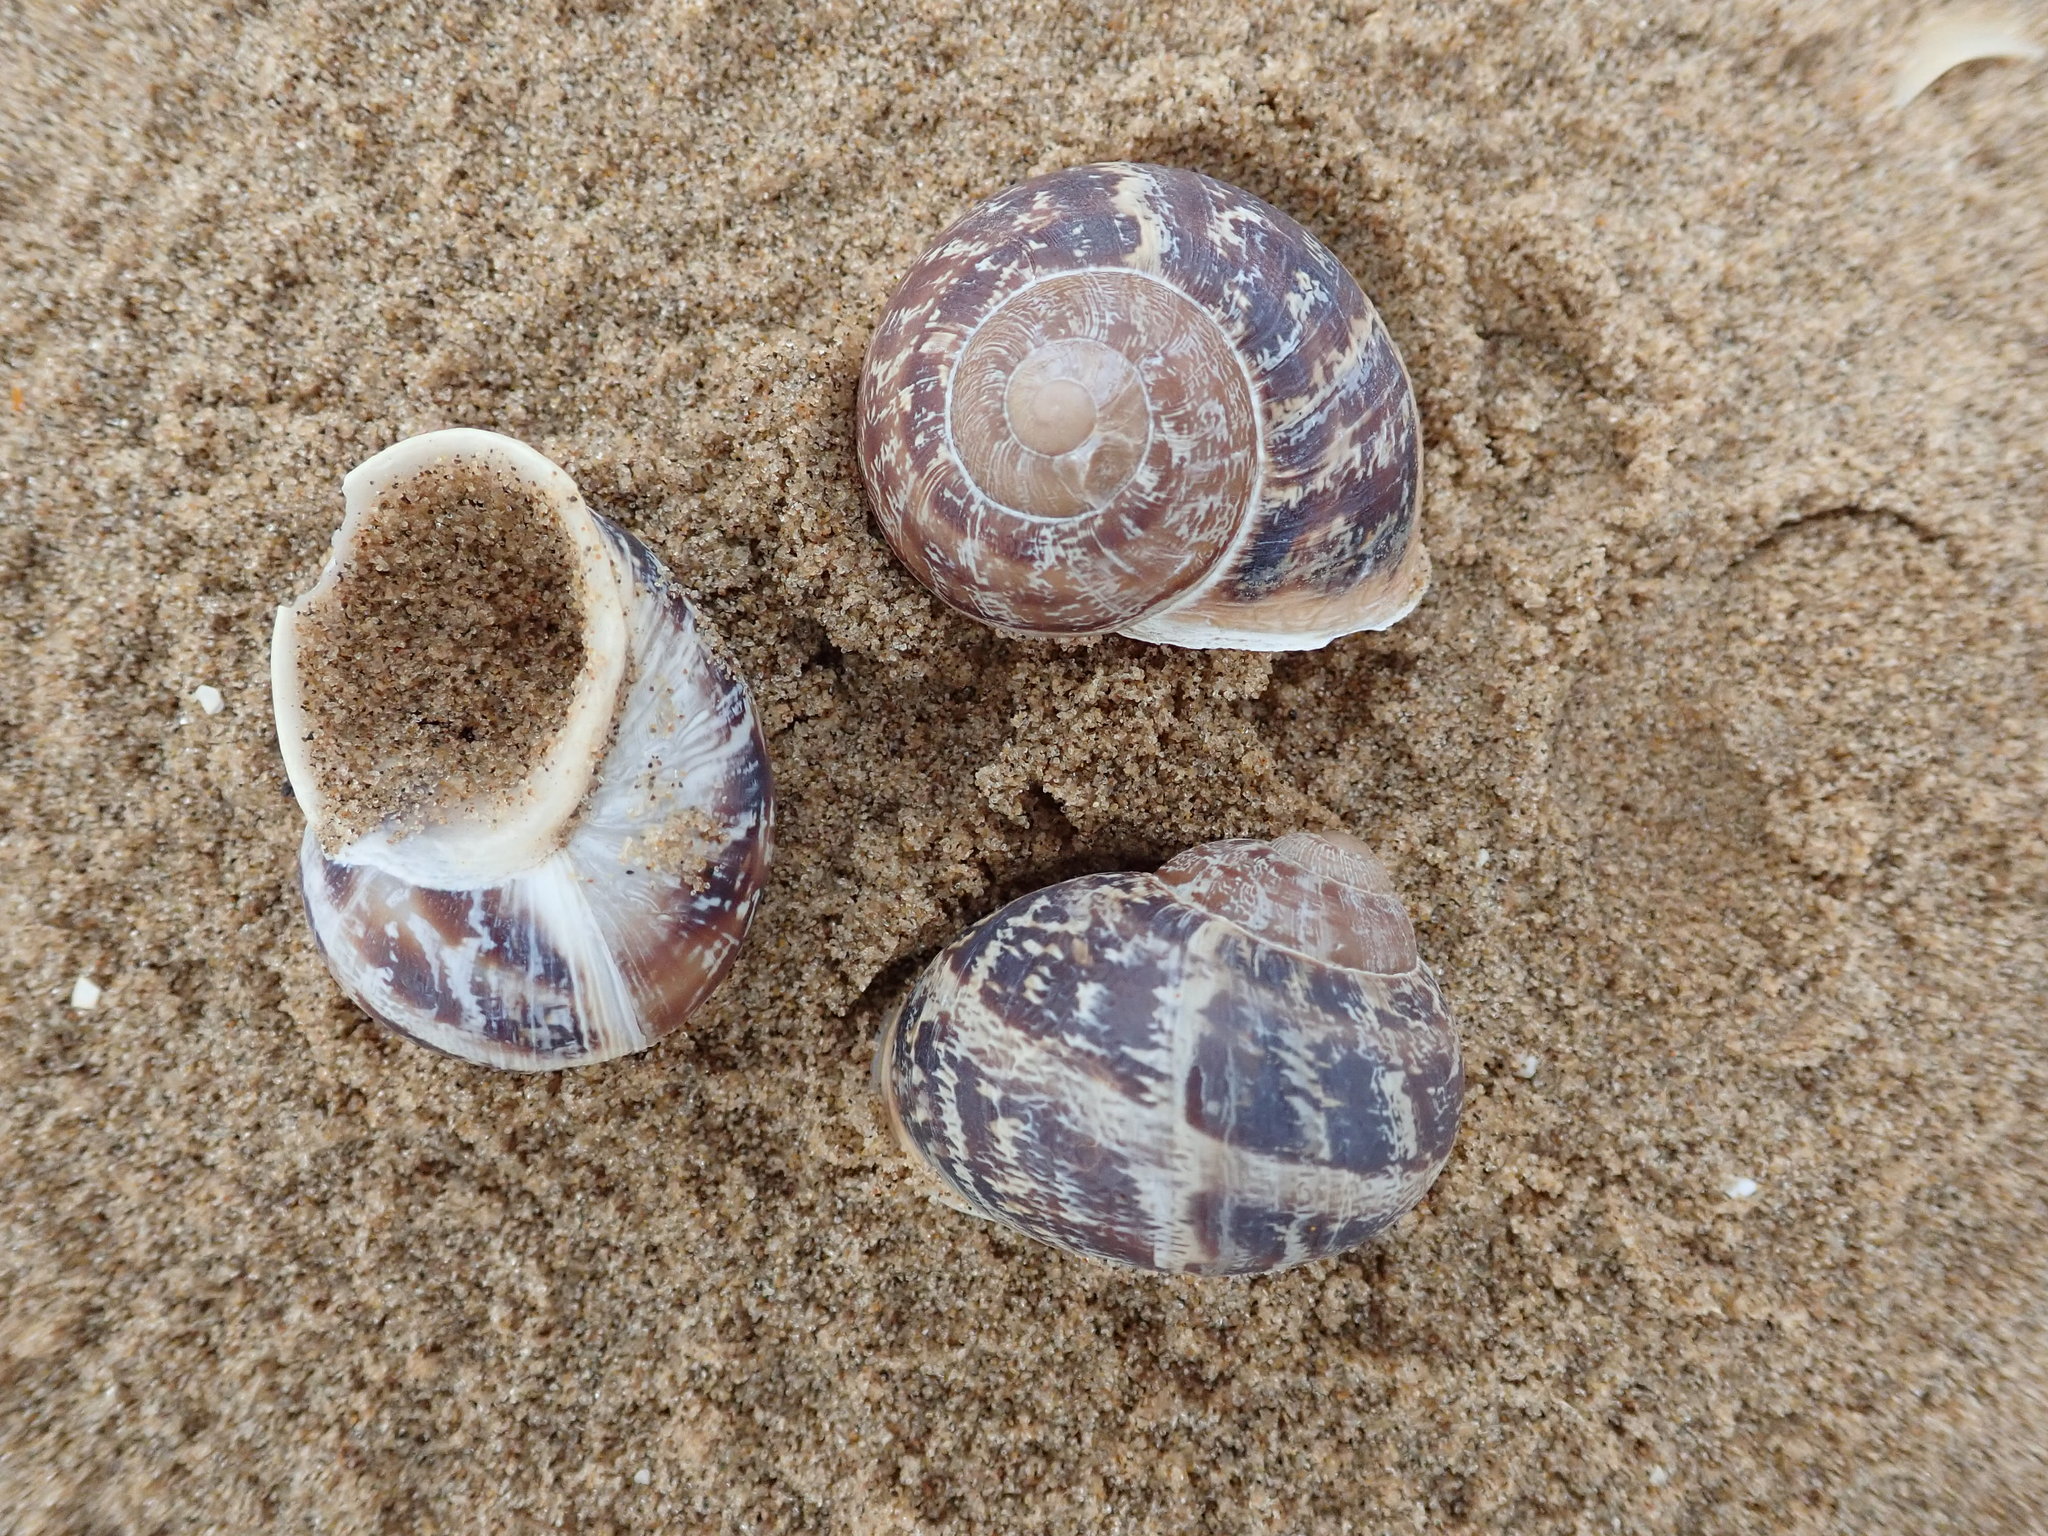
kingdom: Animalia
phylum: Mollusca
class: Gastropoda
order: Stylommatophora
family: Helicidae
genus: Cornu
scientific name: Cornu aspersum
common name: Brown garden snail
